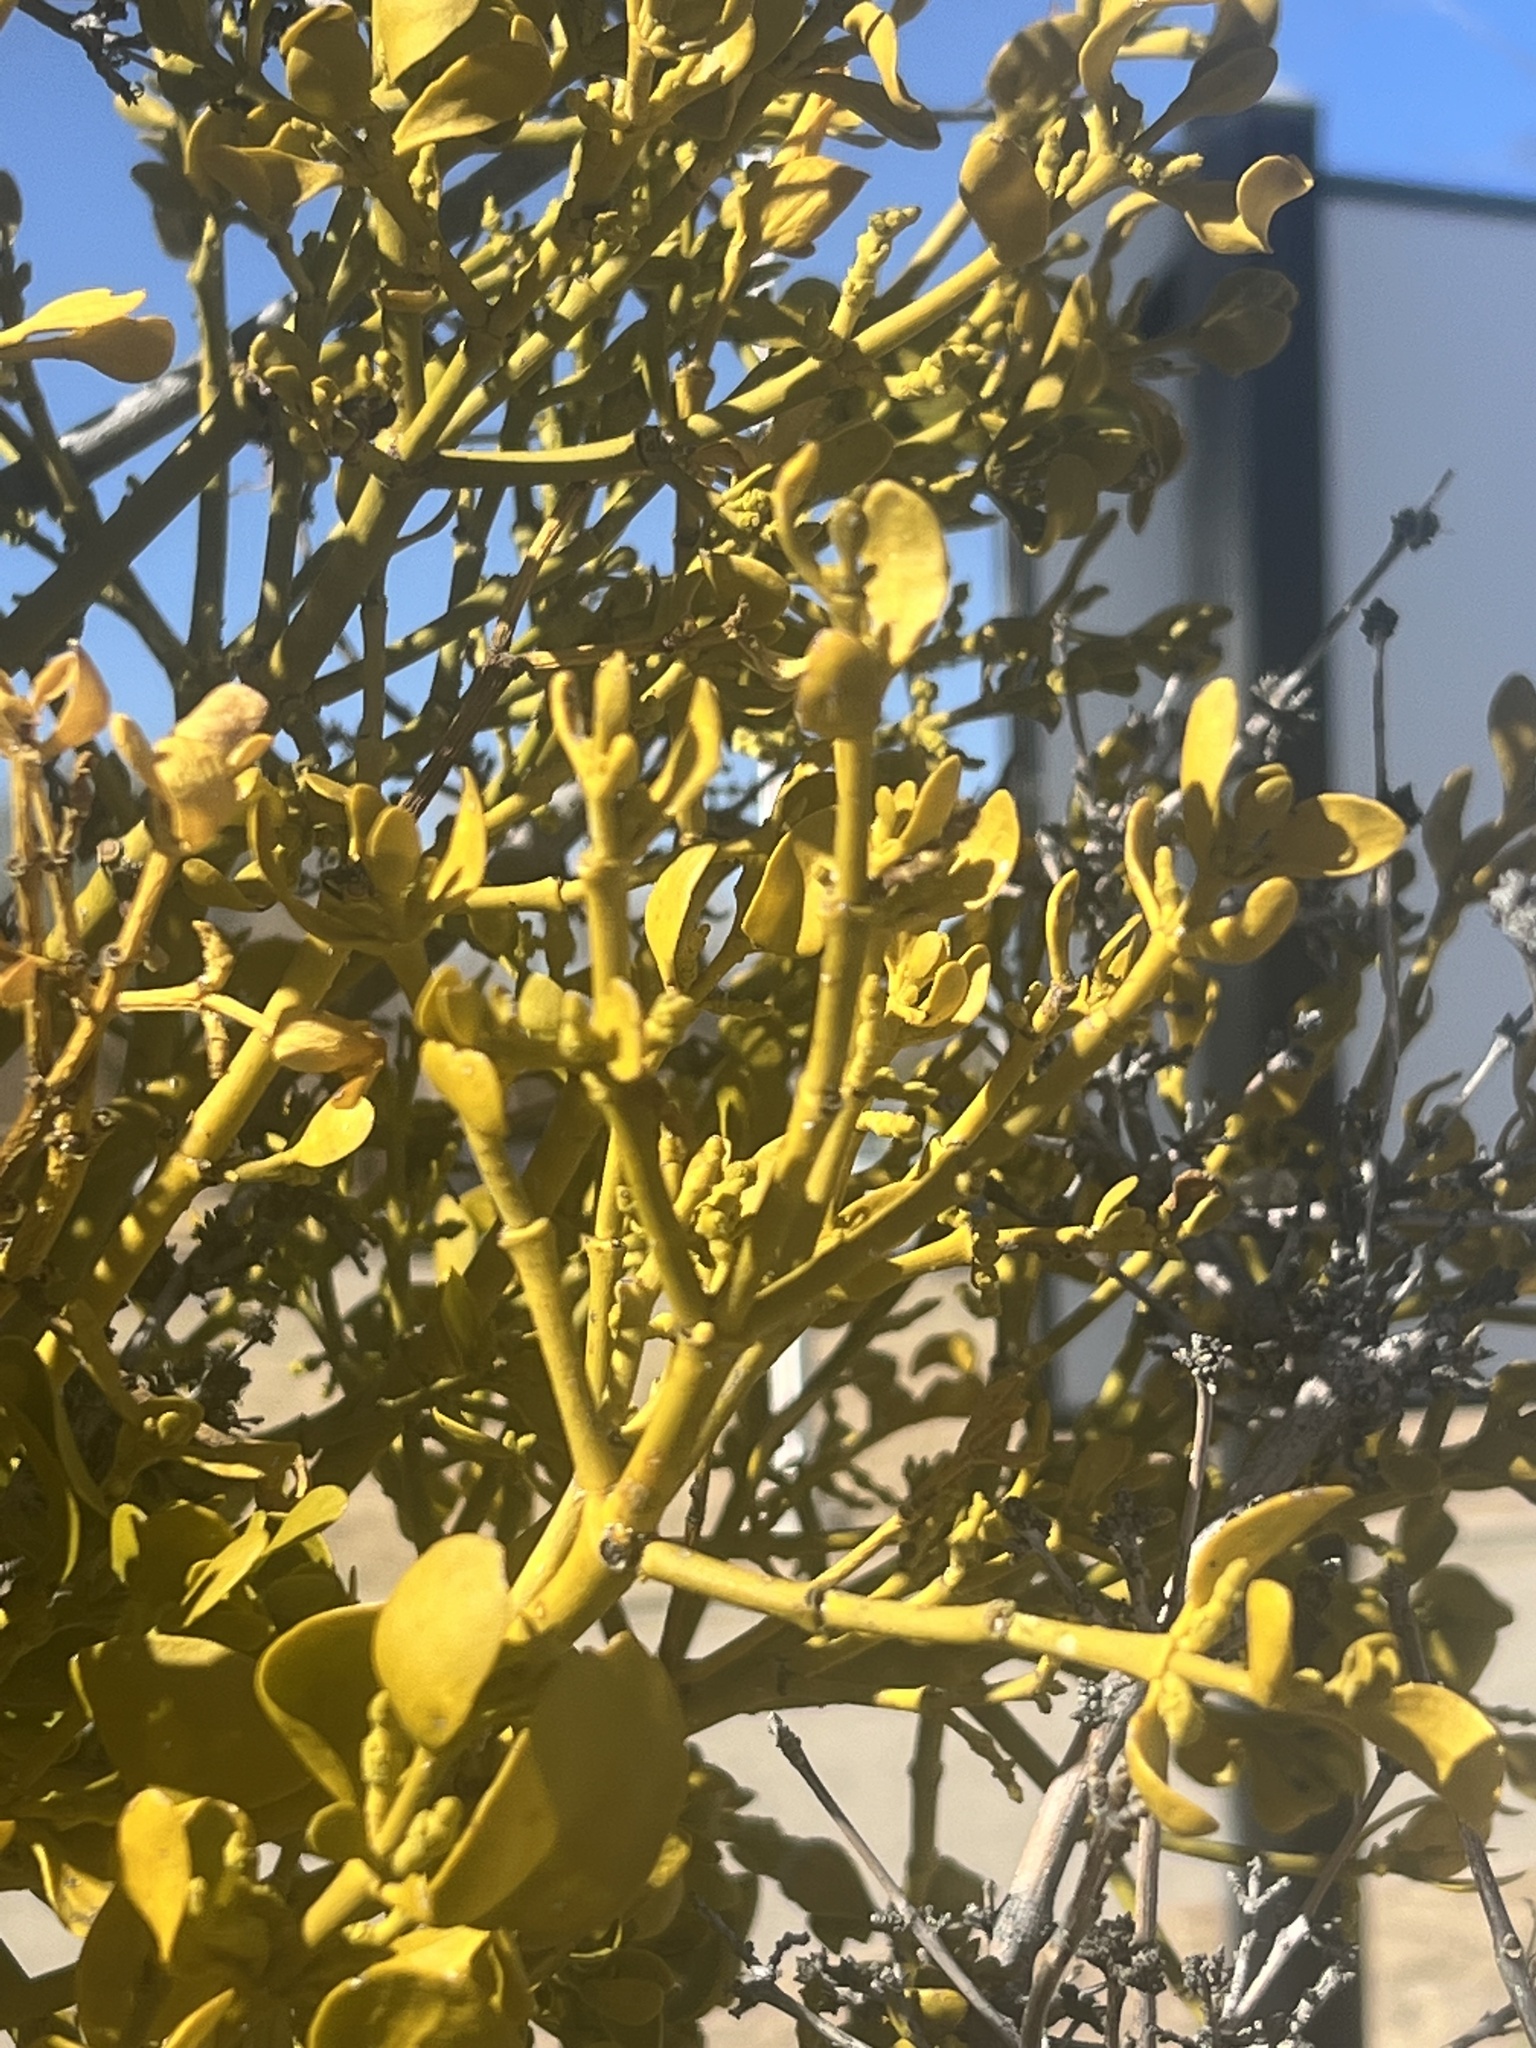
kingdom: Plantae
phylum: Tracheophyta
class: Magnoliopsida
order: Santalales
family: Viscaceae
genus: Phoradendron
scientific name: Phoradendron
